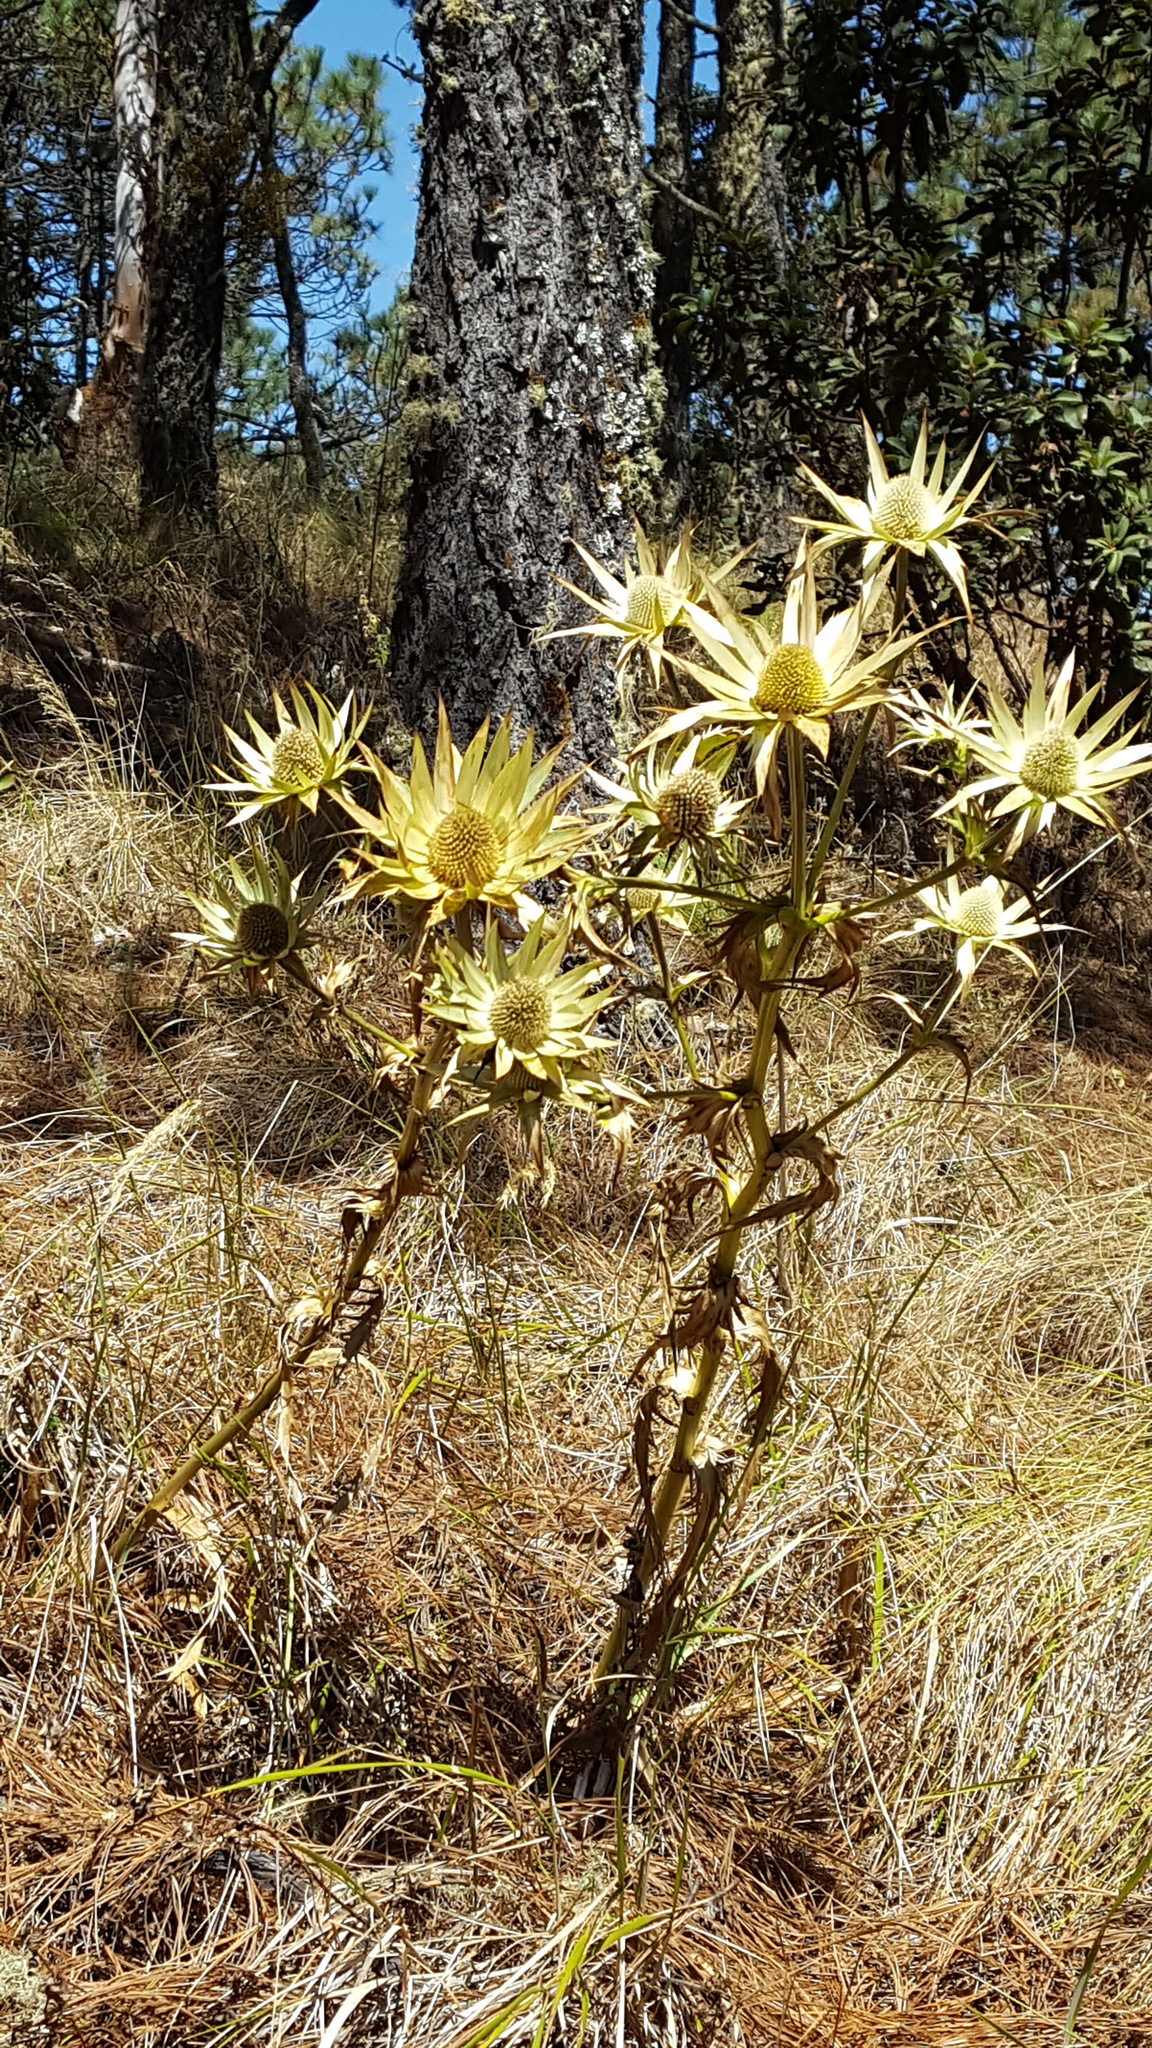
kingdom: Plantae
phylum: Tracheophyta
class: Magnoliopsida
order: Apiales
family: Apiaceae
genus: Eryngium
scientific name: Eryngium cymosum
